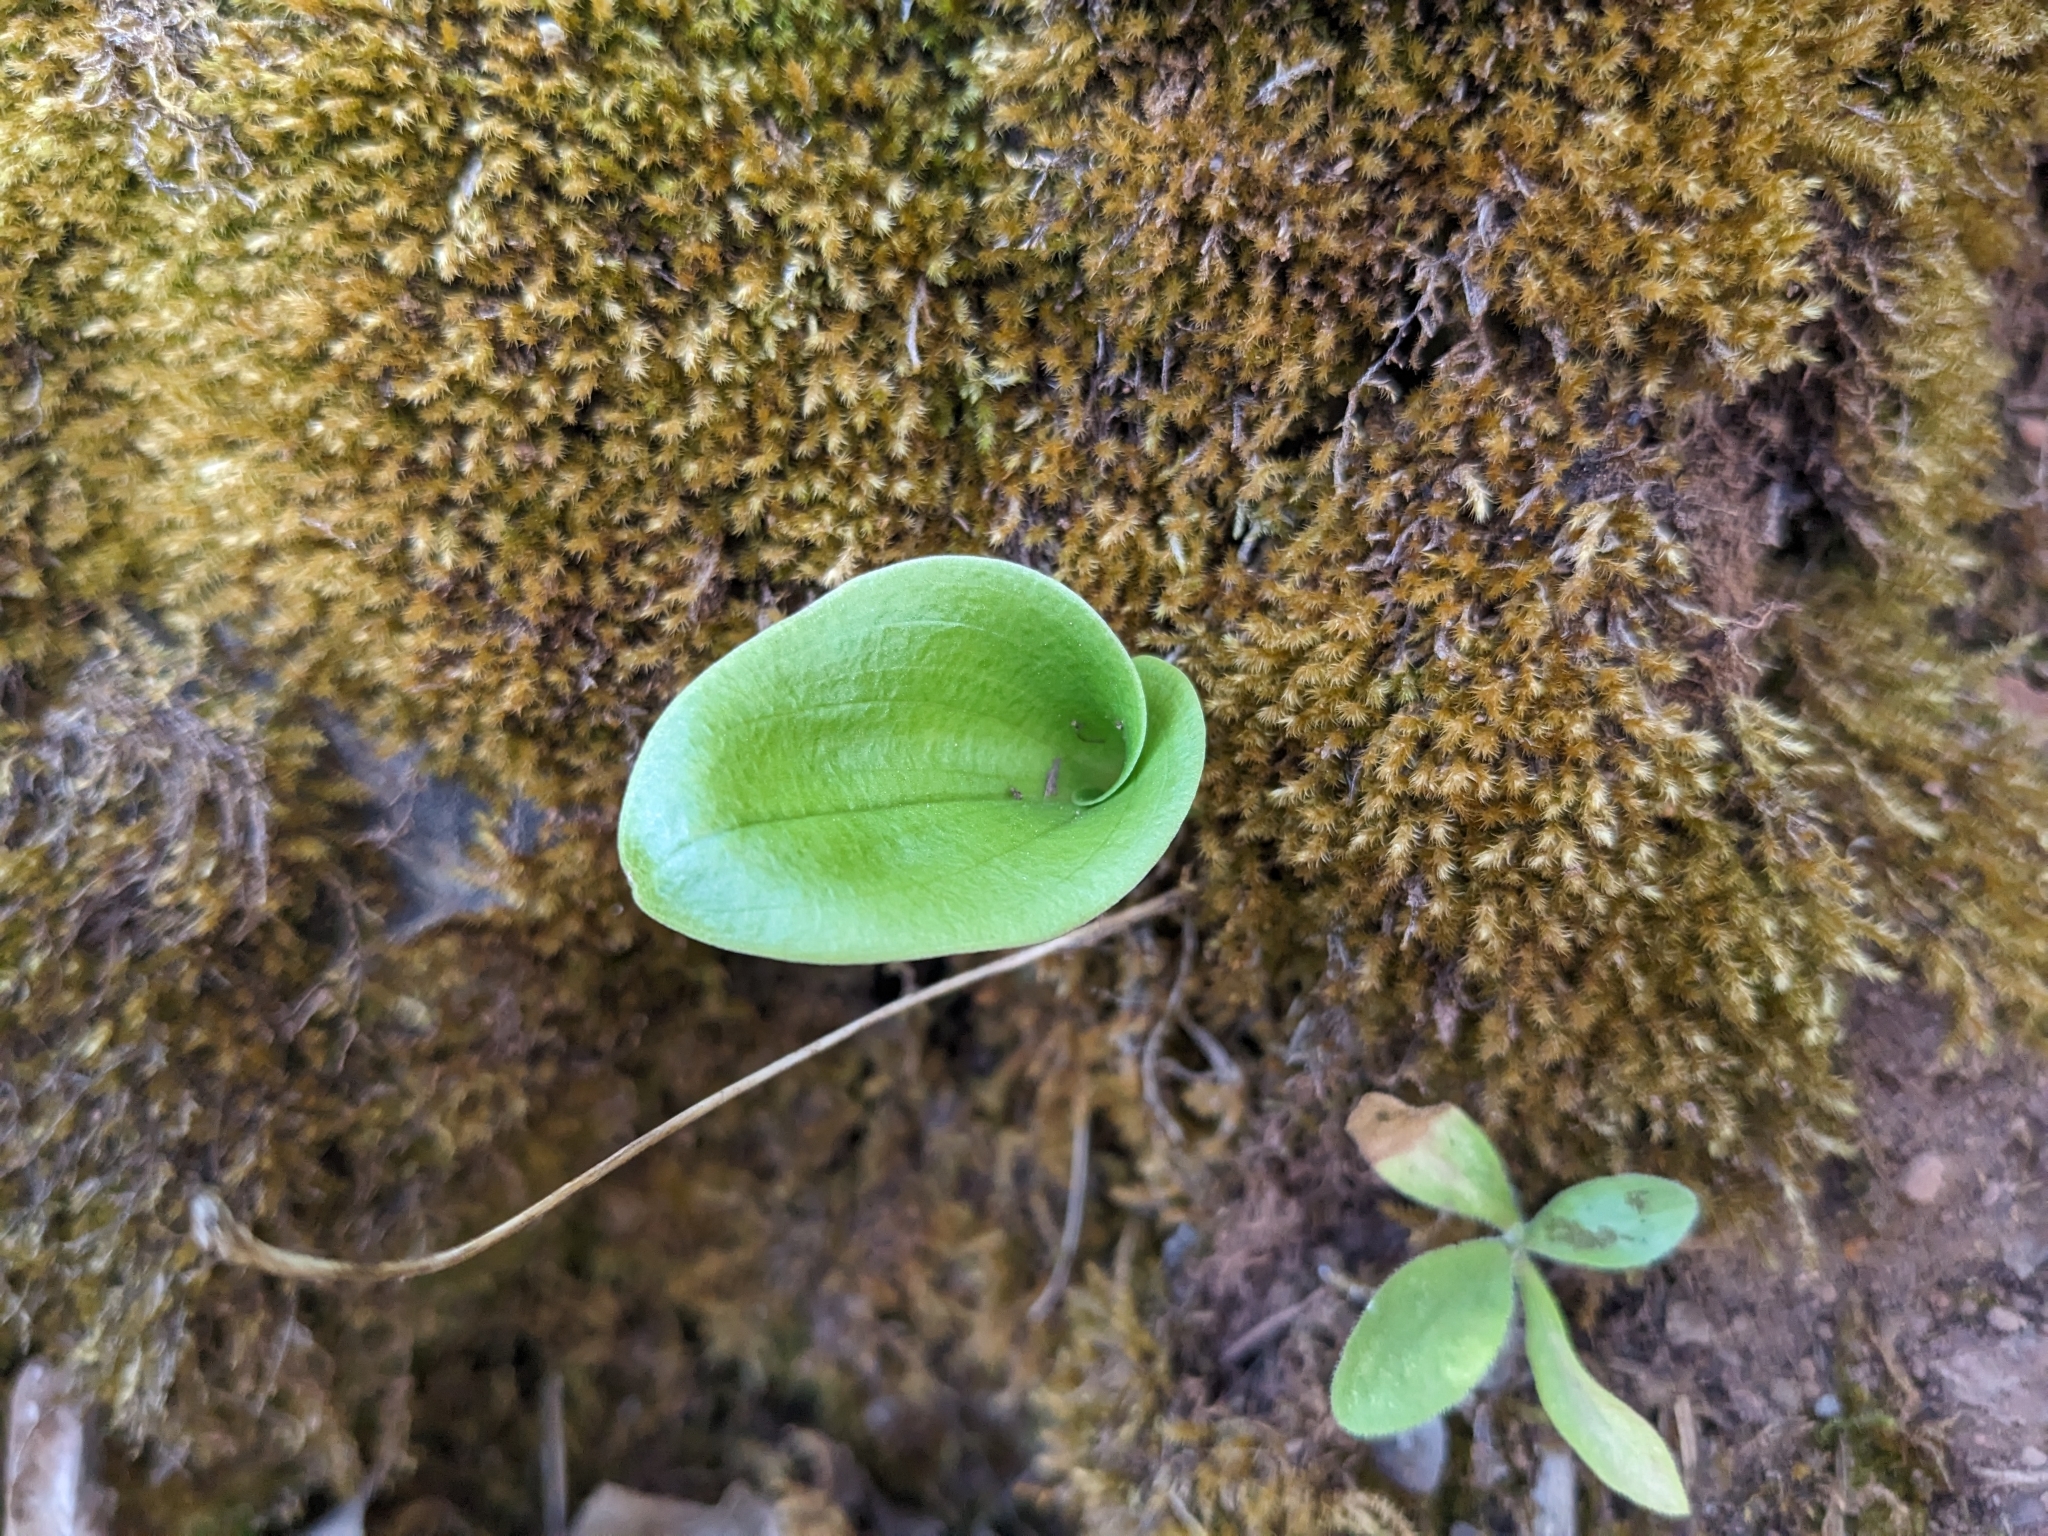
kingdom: Plantae
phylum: Tracheophyta
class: Liliopsida
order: Asparagales
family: Orchidaceae
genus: Malaxis
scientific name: Malaxis macrostachya
